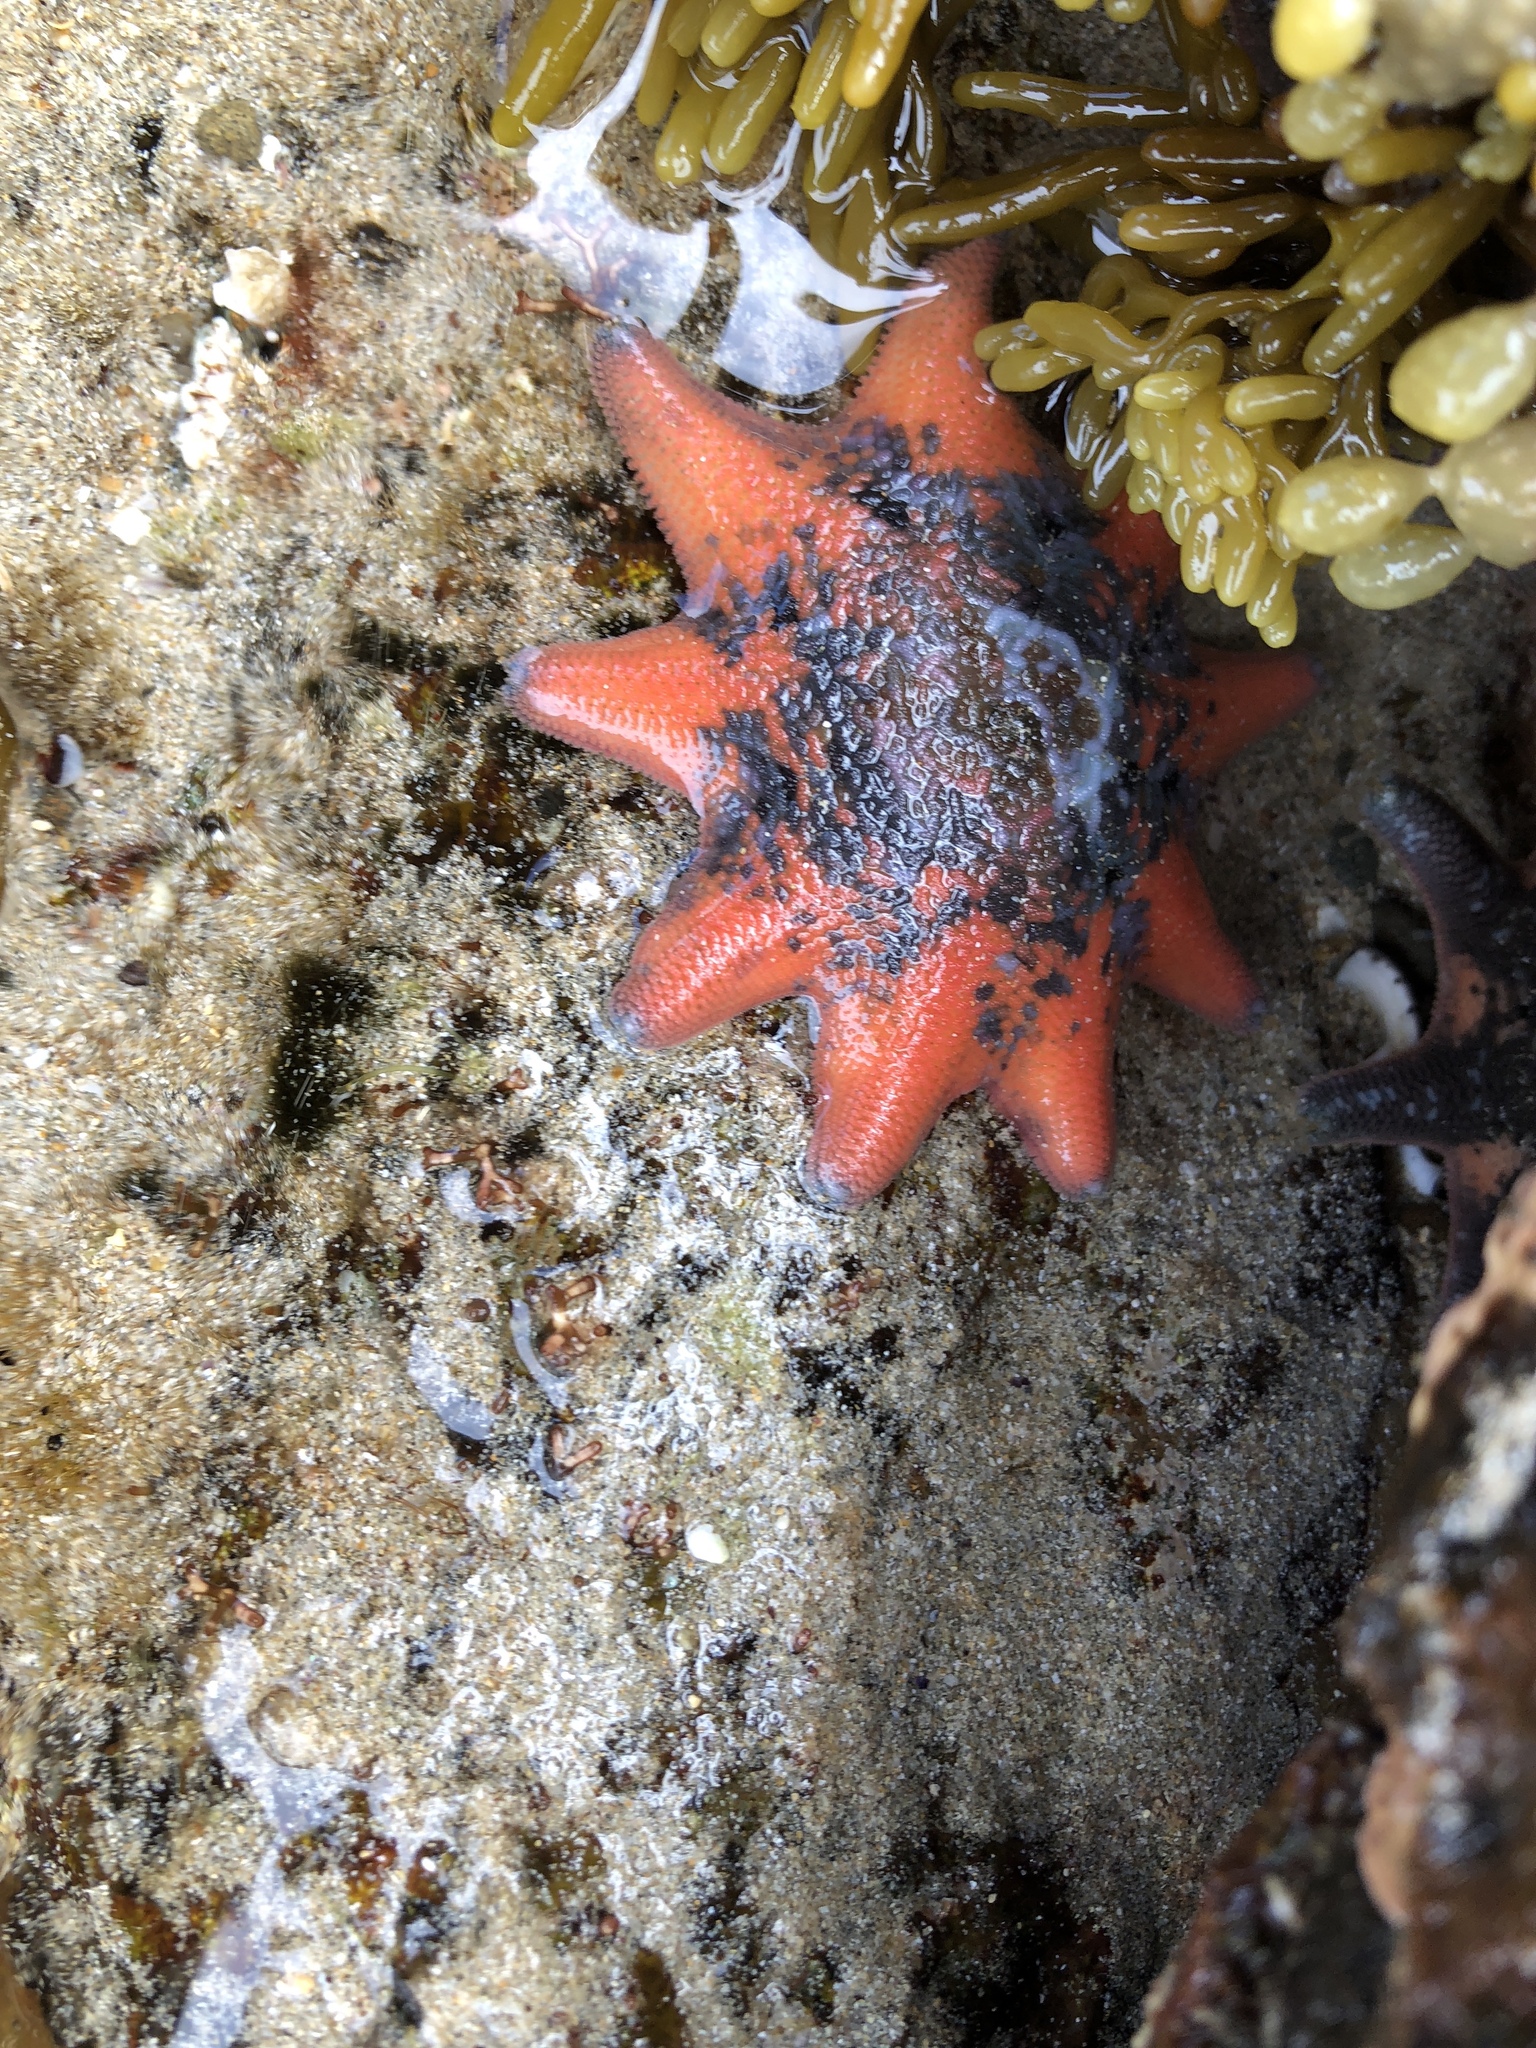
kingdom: Animalia
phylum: Echinodermata
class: Asteroidea
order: Valvatida
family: Asterinidae
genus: Meridiastra
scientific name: Meridiastra calcar
